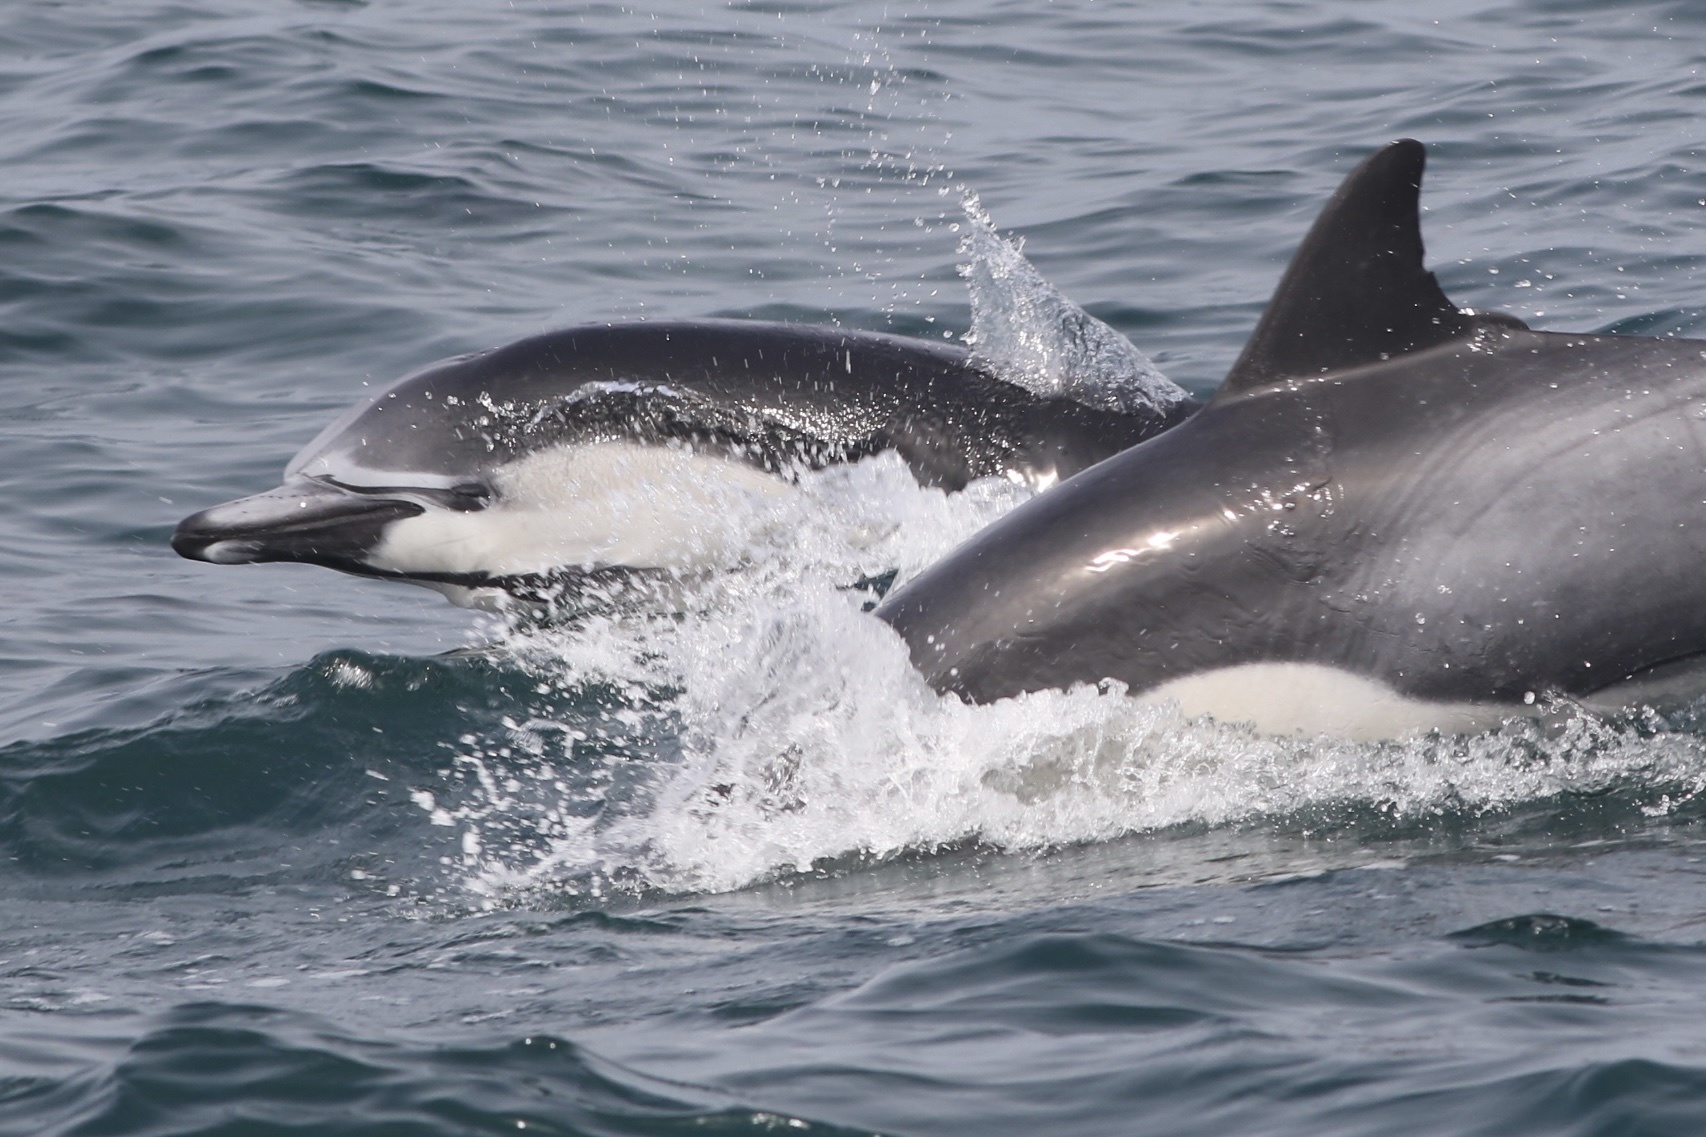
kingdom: Animalia
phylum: Chordata
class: Mammalia
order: Cetacea
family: Delphinidae
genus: Delphinus
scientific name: Delphinus delphis
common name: Common dolphin
